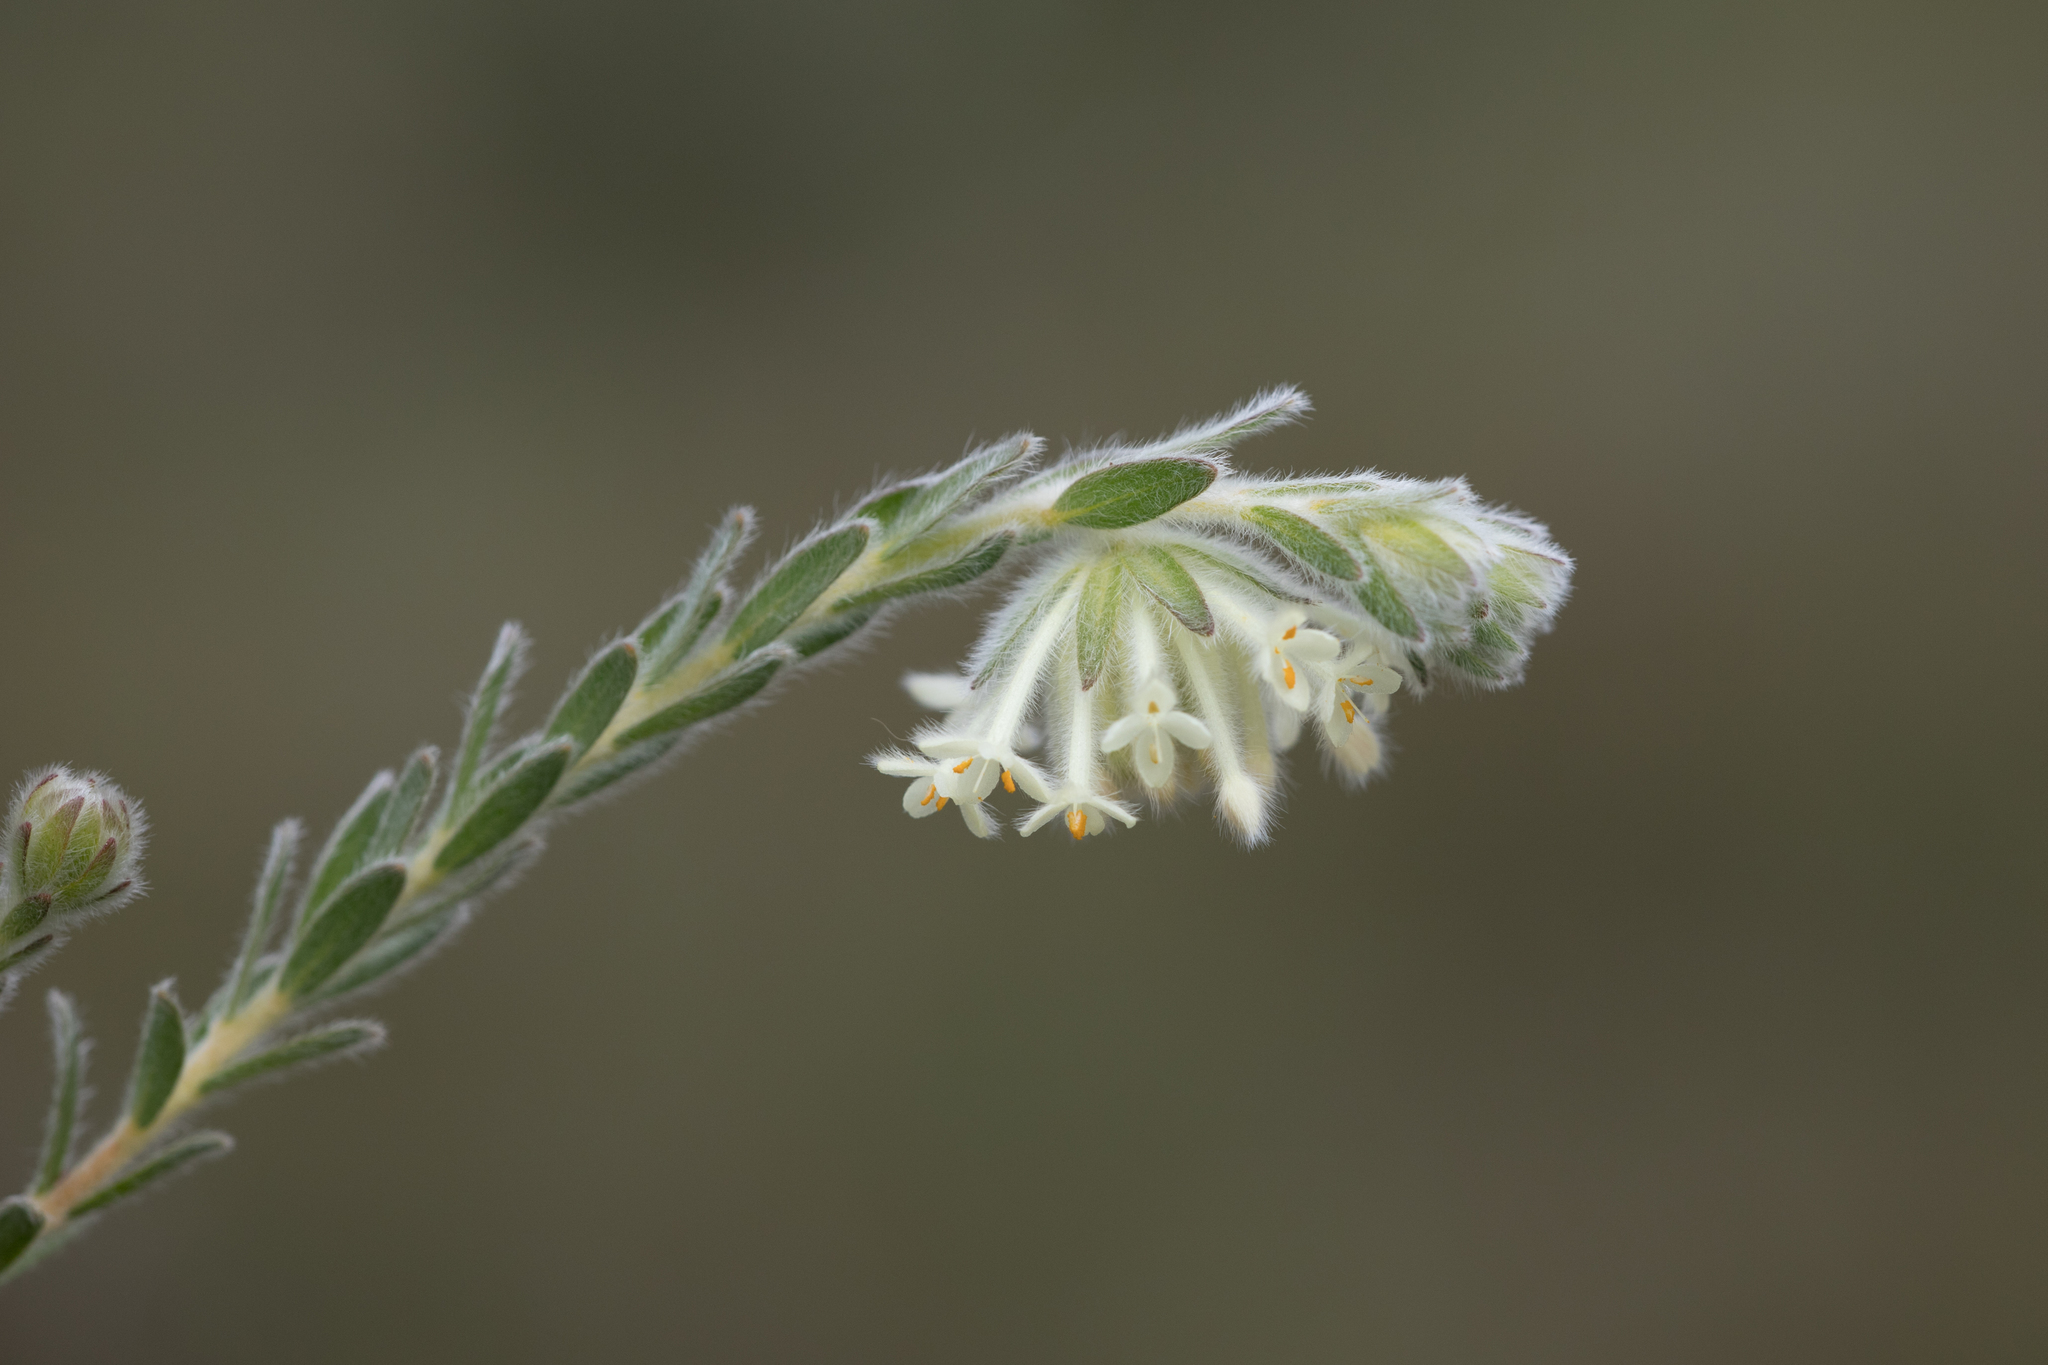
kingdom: Plantae
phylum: Tracheophyta
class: Magnoliopsida
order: Malvales
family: Thymelaeaceae
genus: Pimelea
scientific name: Pimelea octophylla
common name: Woolly riceflower
